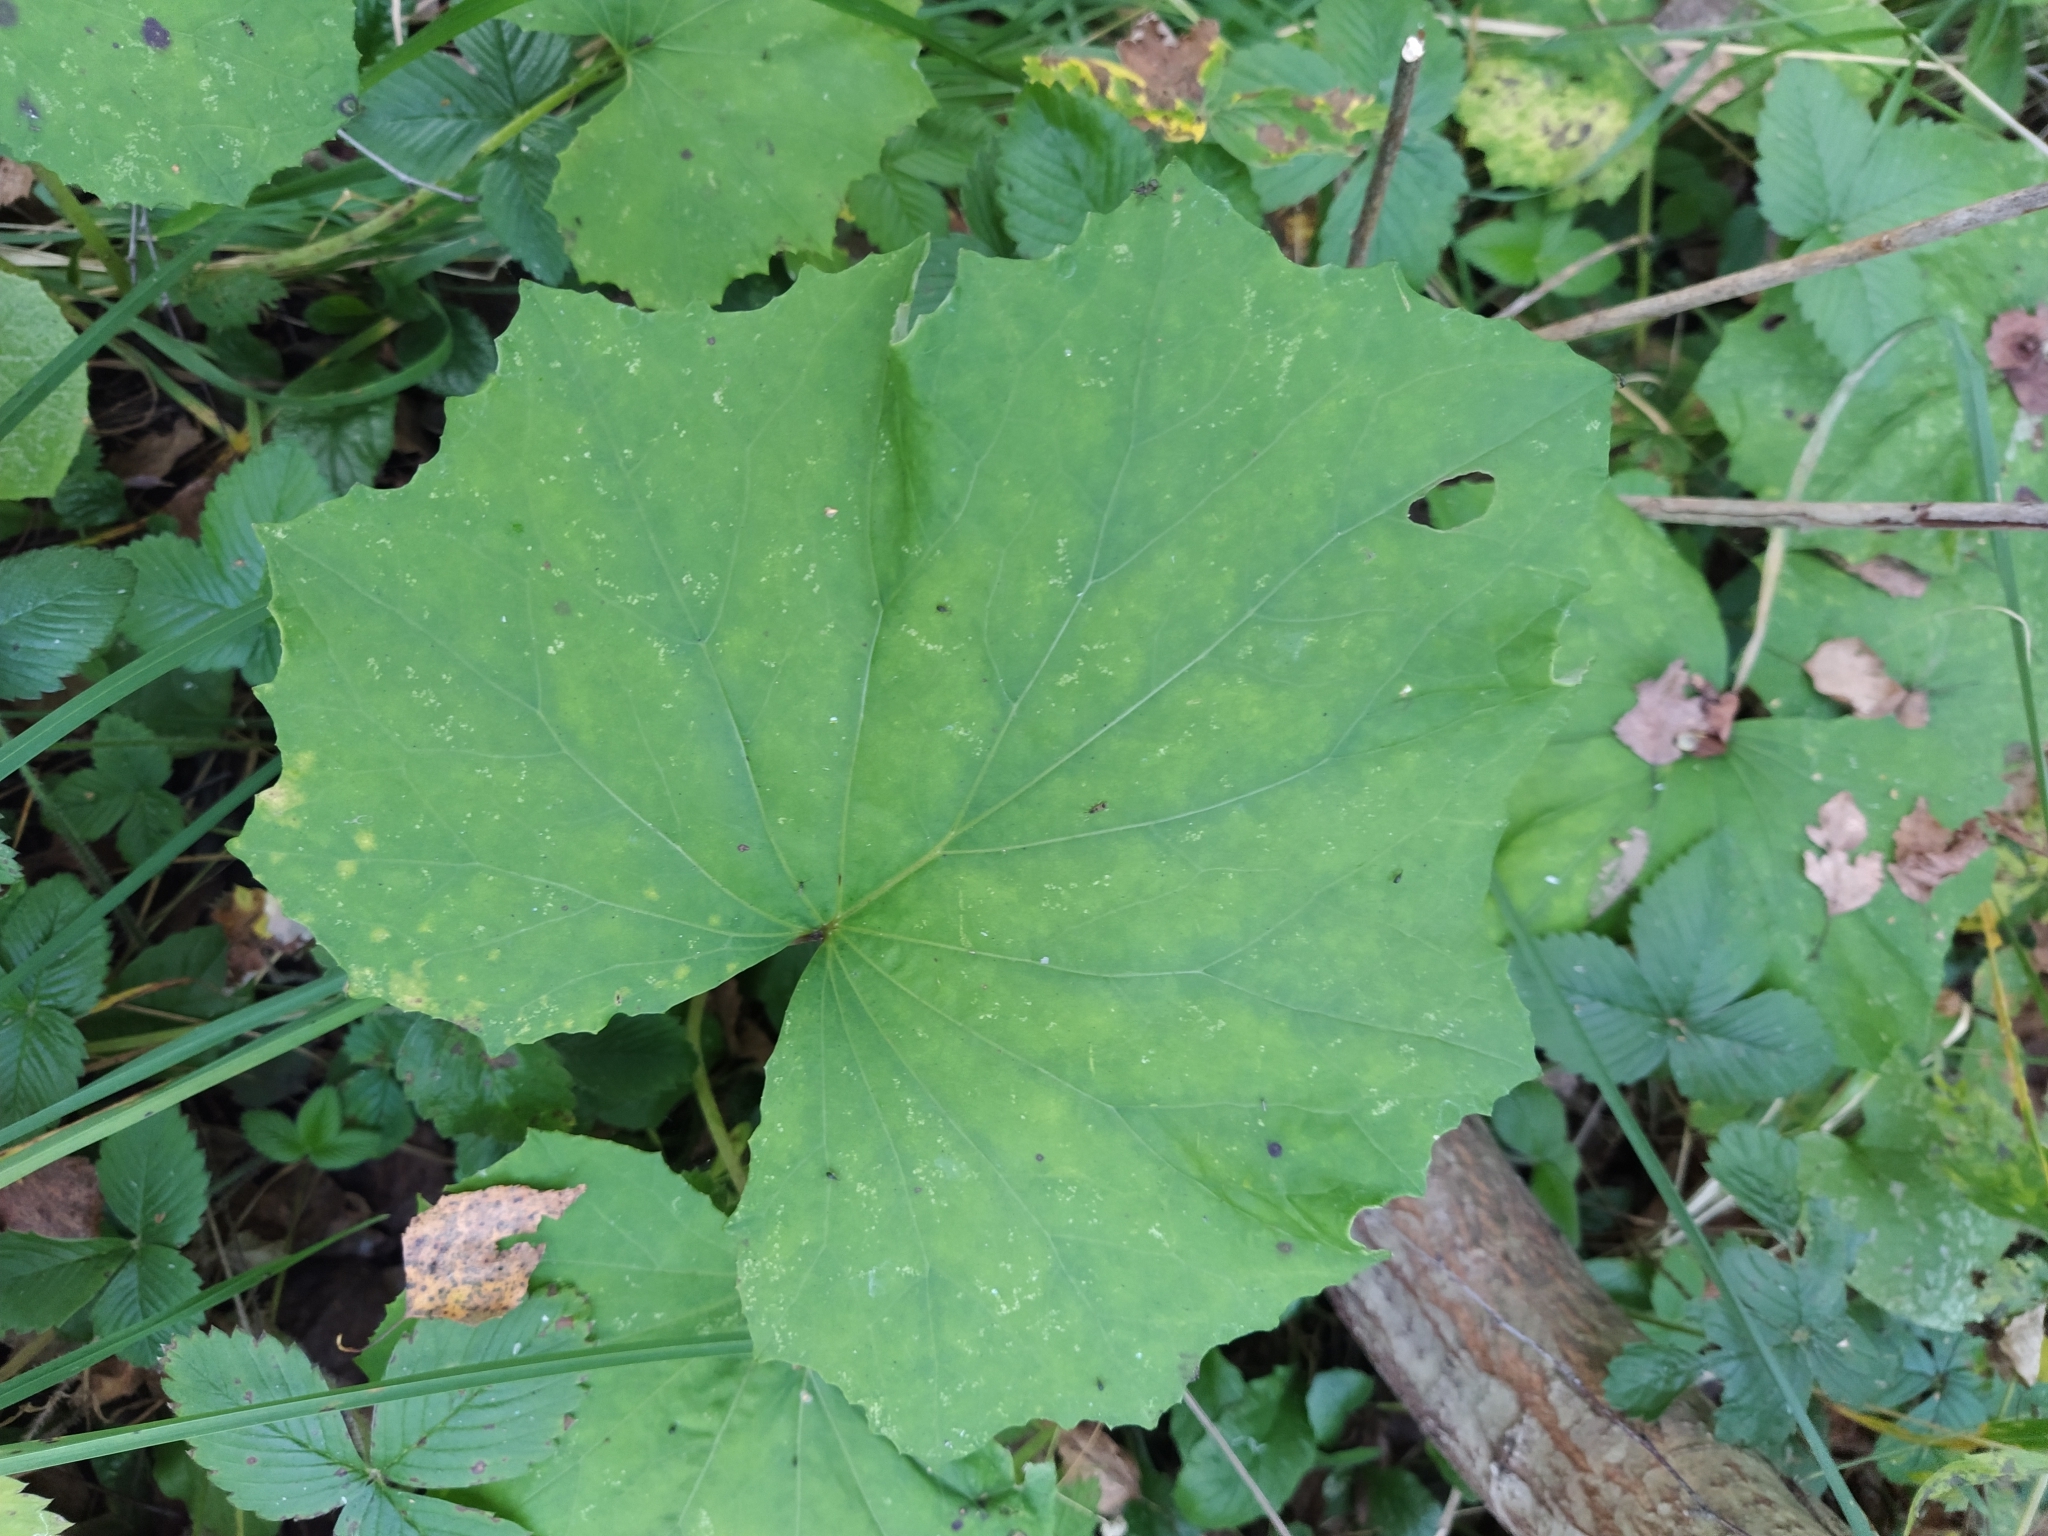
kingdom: Plantae
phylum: Tracheophyta
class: Magnoliopsida
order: Asterales
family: Asteraceae
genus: Tussilago
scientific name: Tussilago farfara
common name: Coltsfoot
